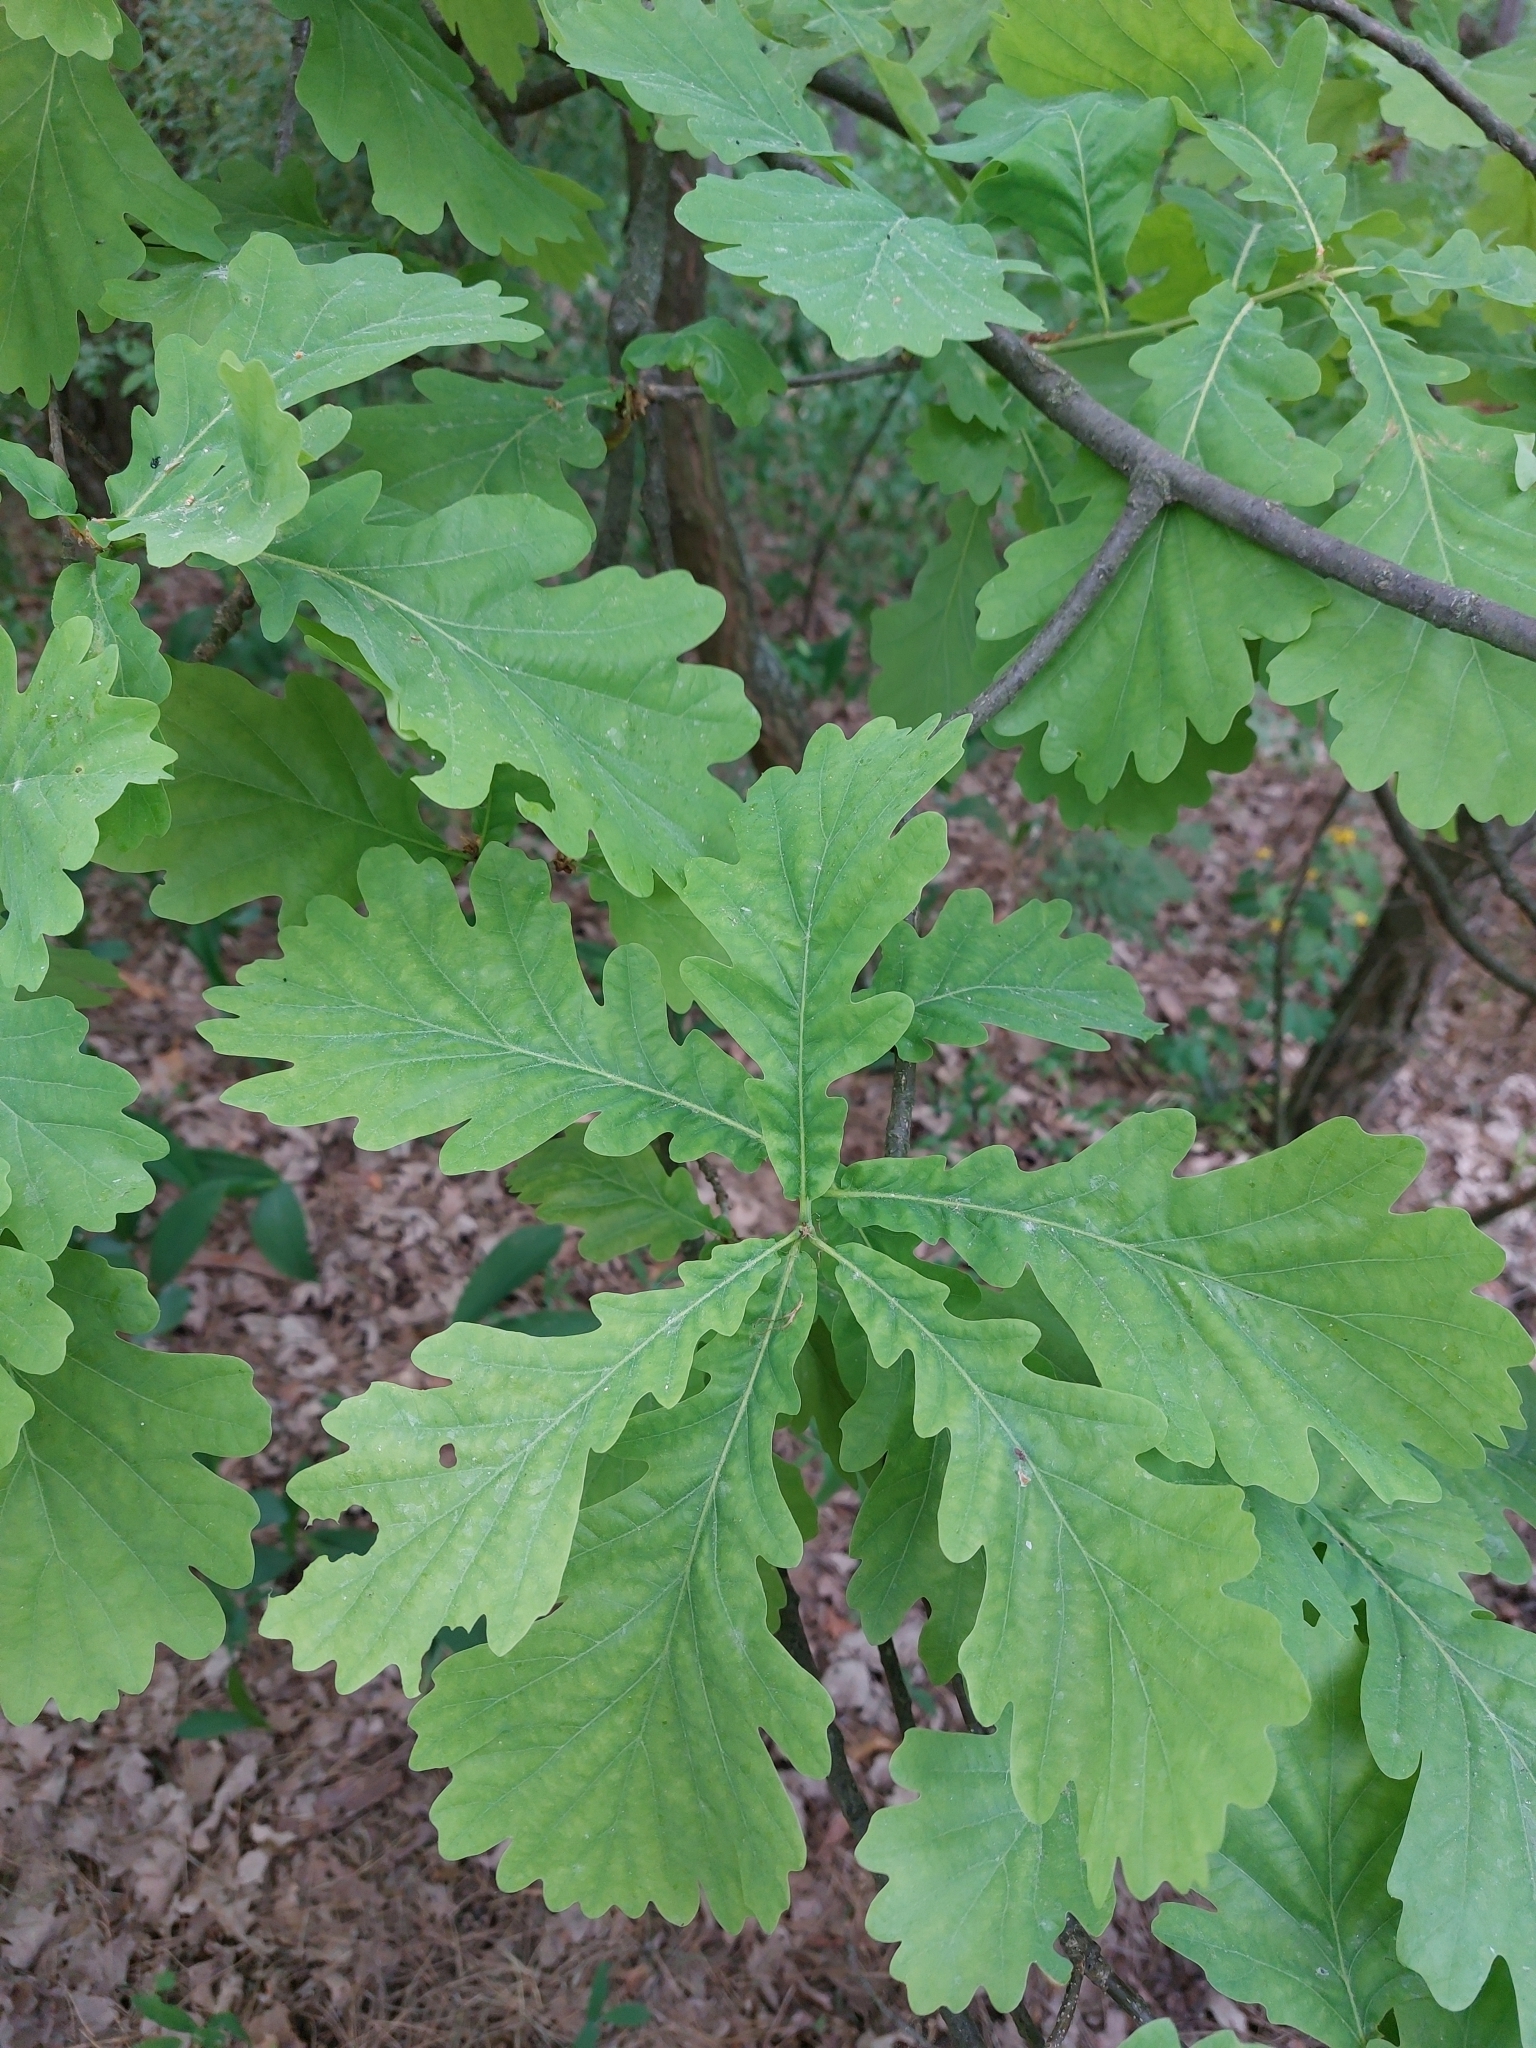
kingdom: Plantae
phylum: Tracheophyta
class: Magnoliopsida
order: Fagales
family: Fagaceae
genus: Quercus
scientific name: Quercus robur
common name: Pedunculate oak
